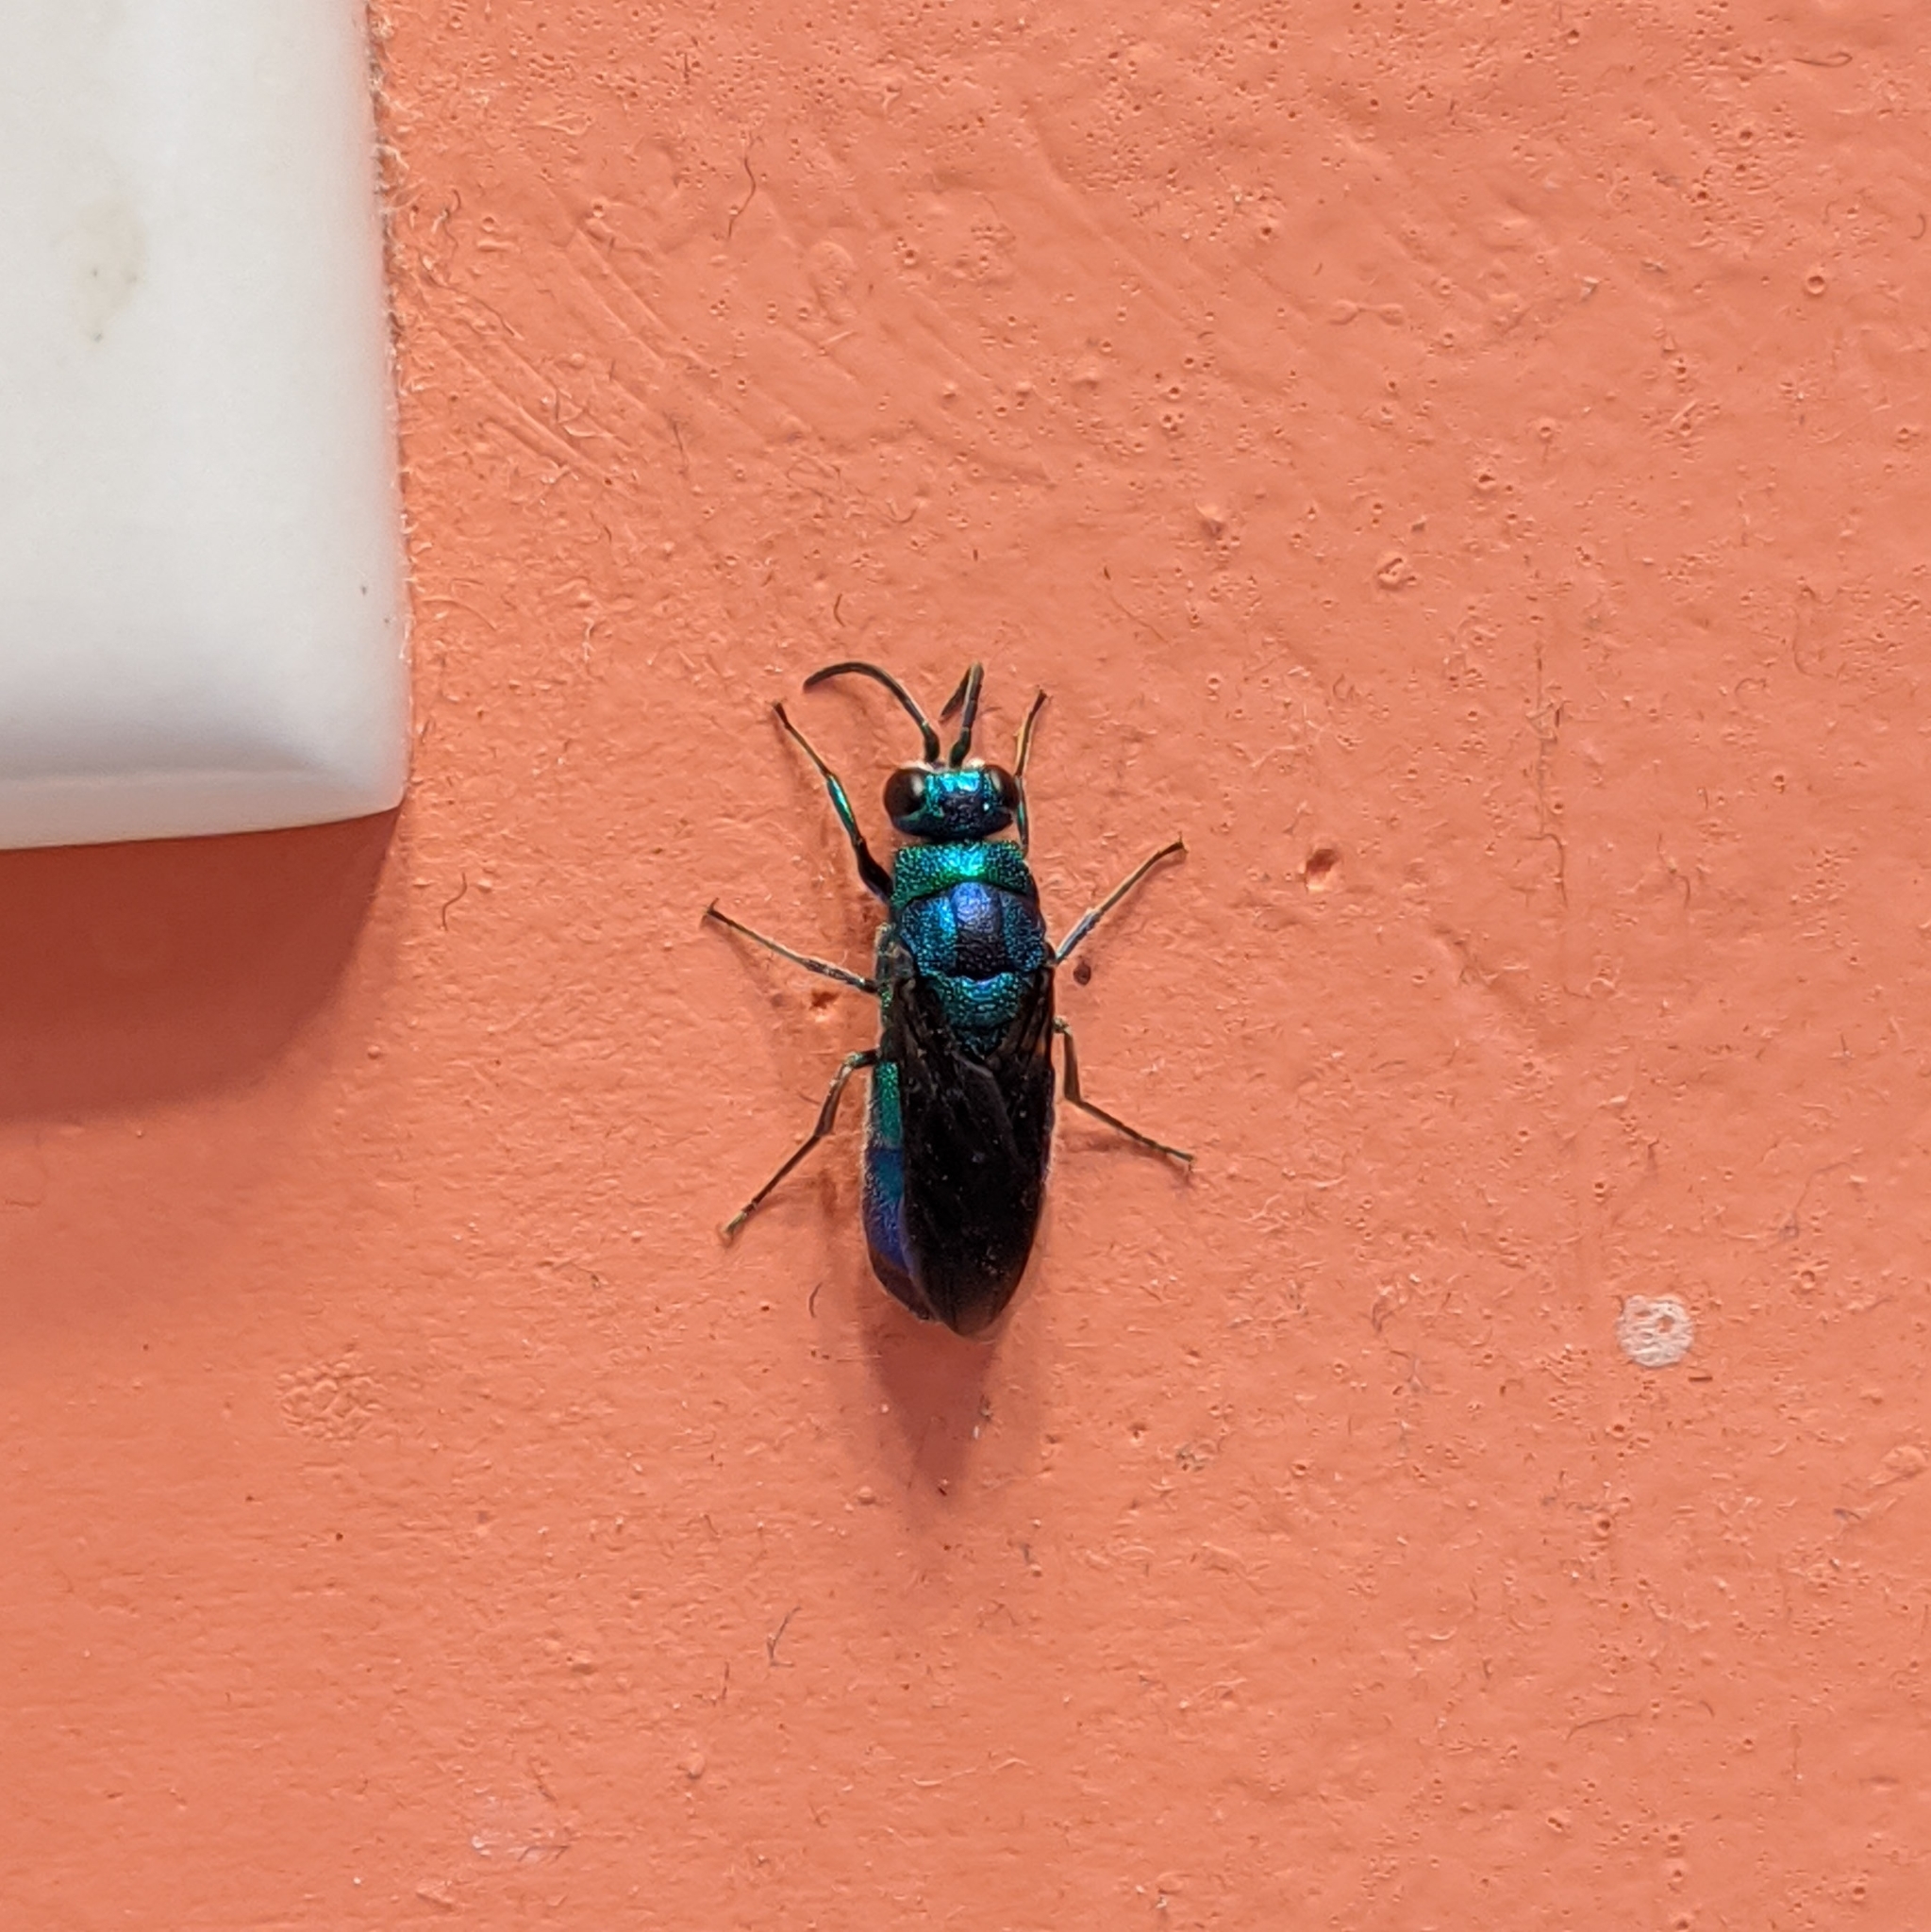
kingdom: Animalia
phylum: Arthropoda
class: Insecta
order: Hymenoptera
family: Chrysididae
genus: Chrysis
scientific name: Chrysis angolensis
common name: Cuckoo wasp
